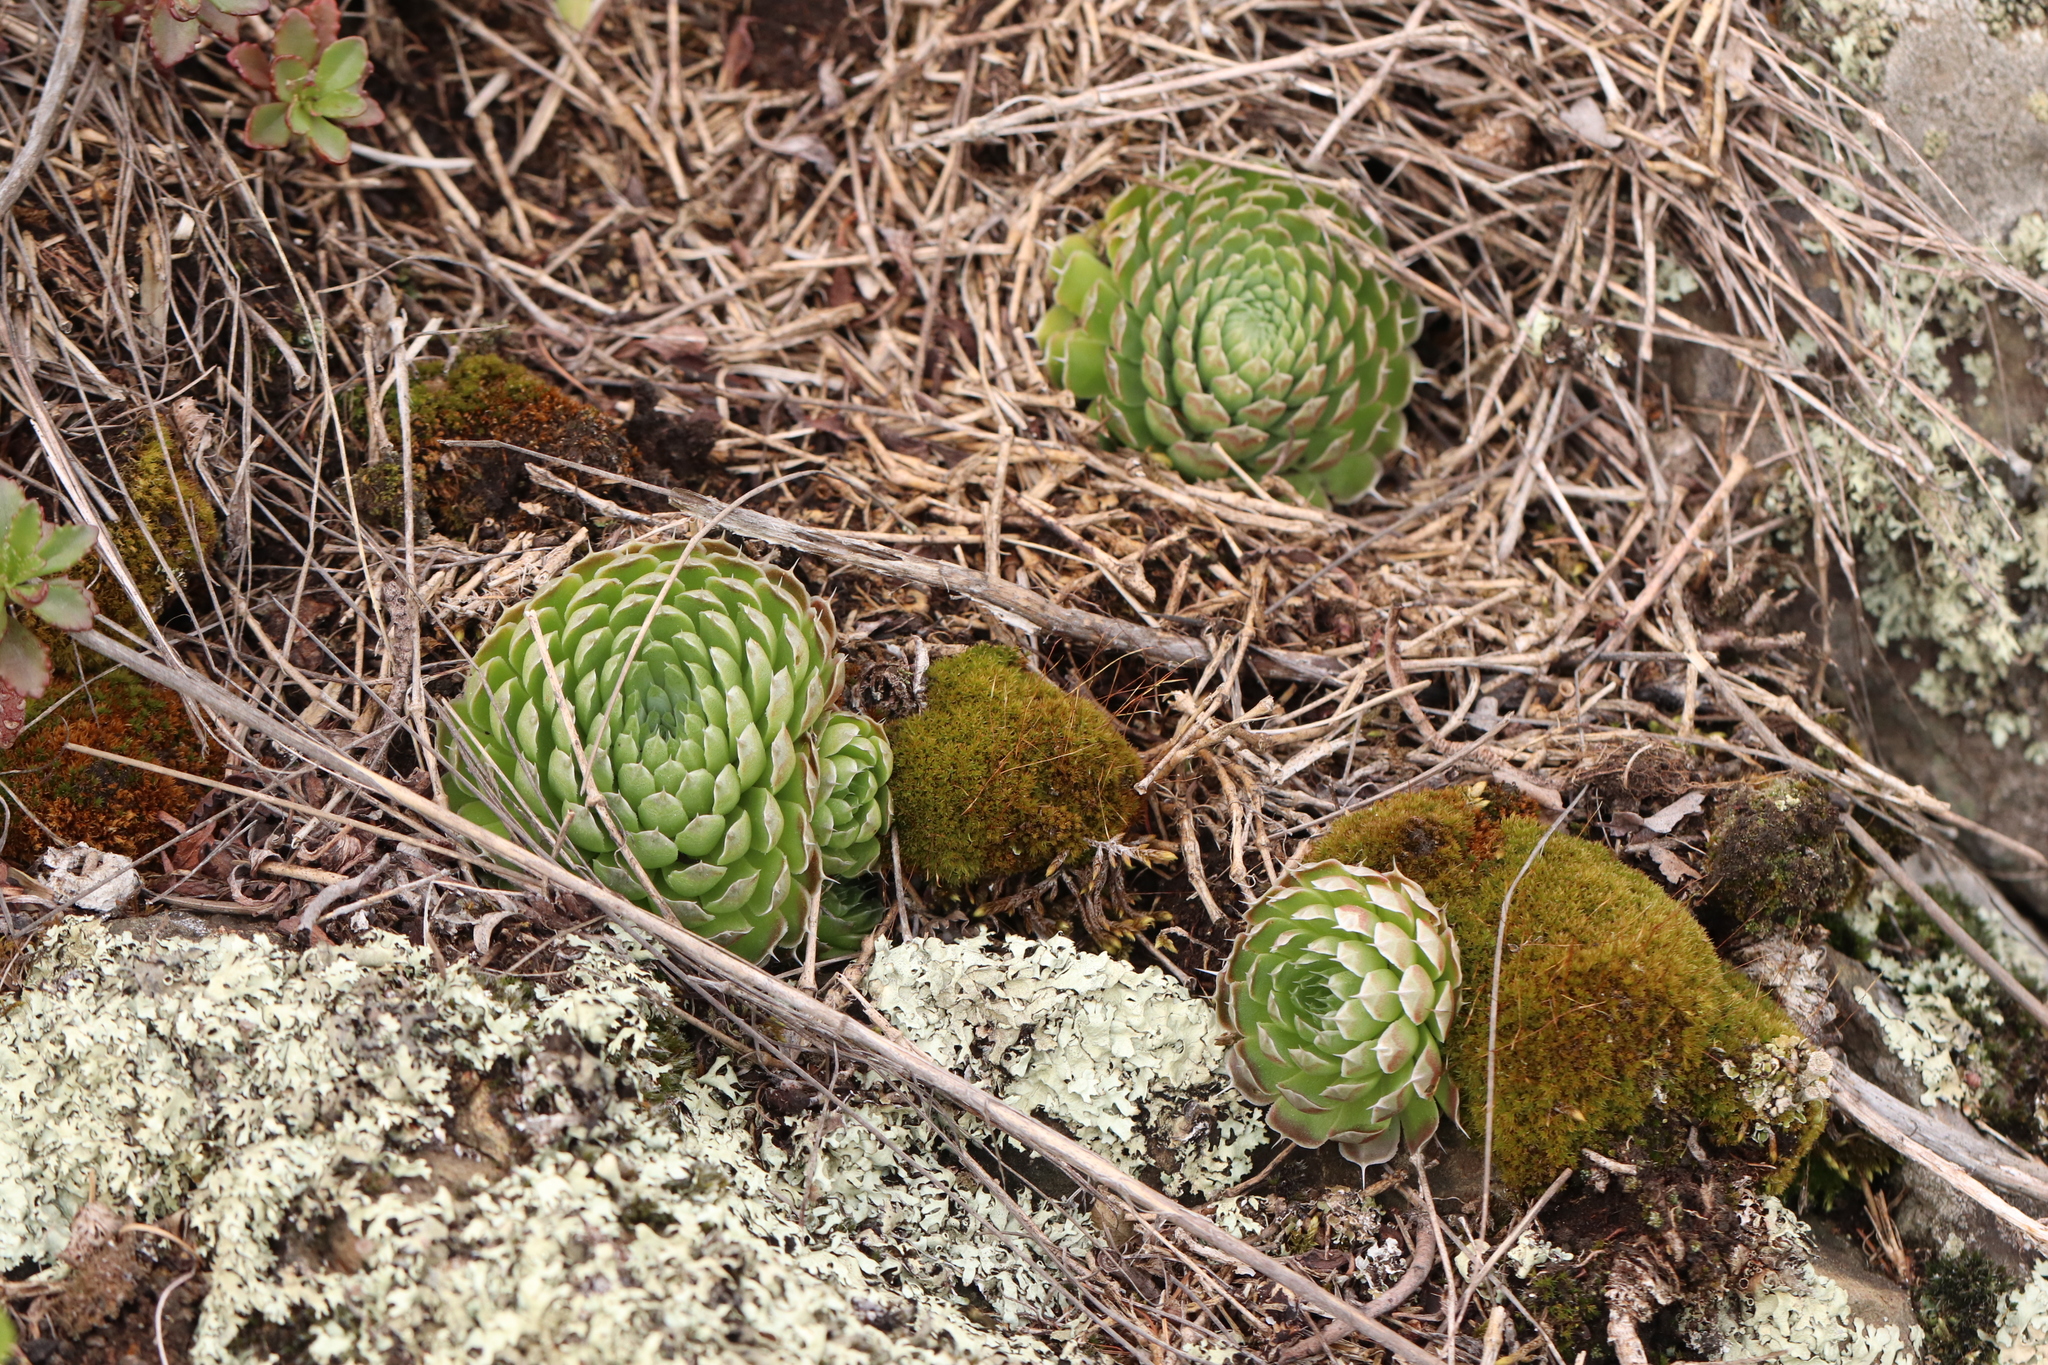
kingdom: Plantae
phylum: Tracheophyta
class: Magnoliopsida
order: Saxifragales
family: Crassulaceae
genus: Orostachys
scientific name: Orostachys spinosa
